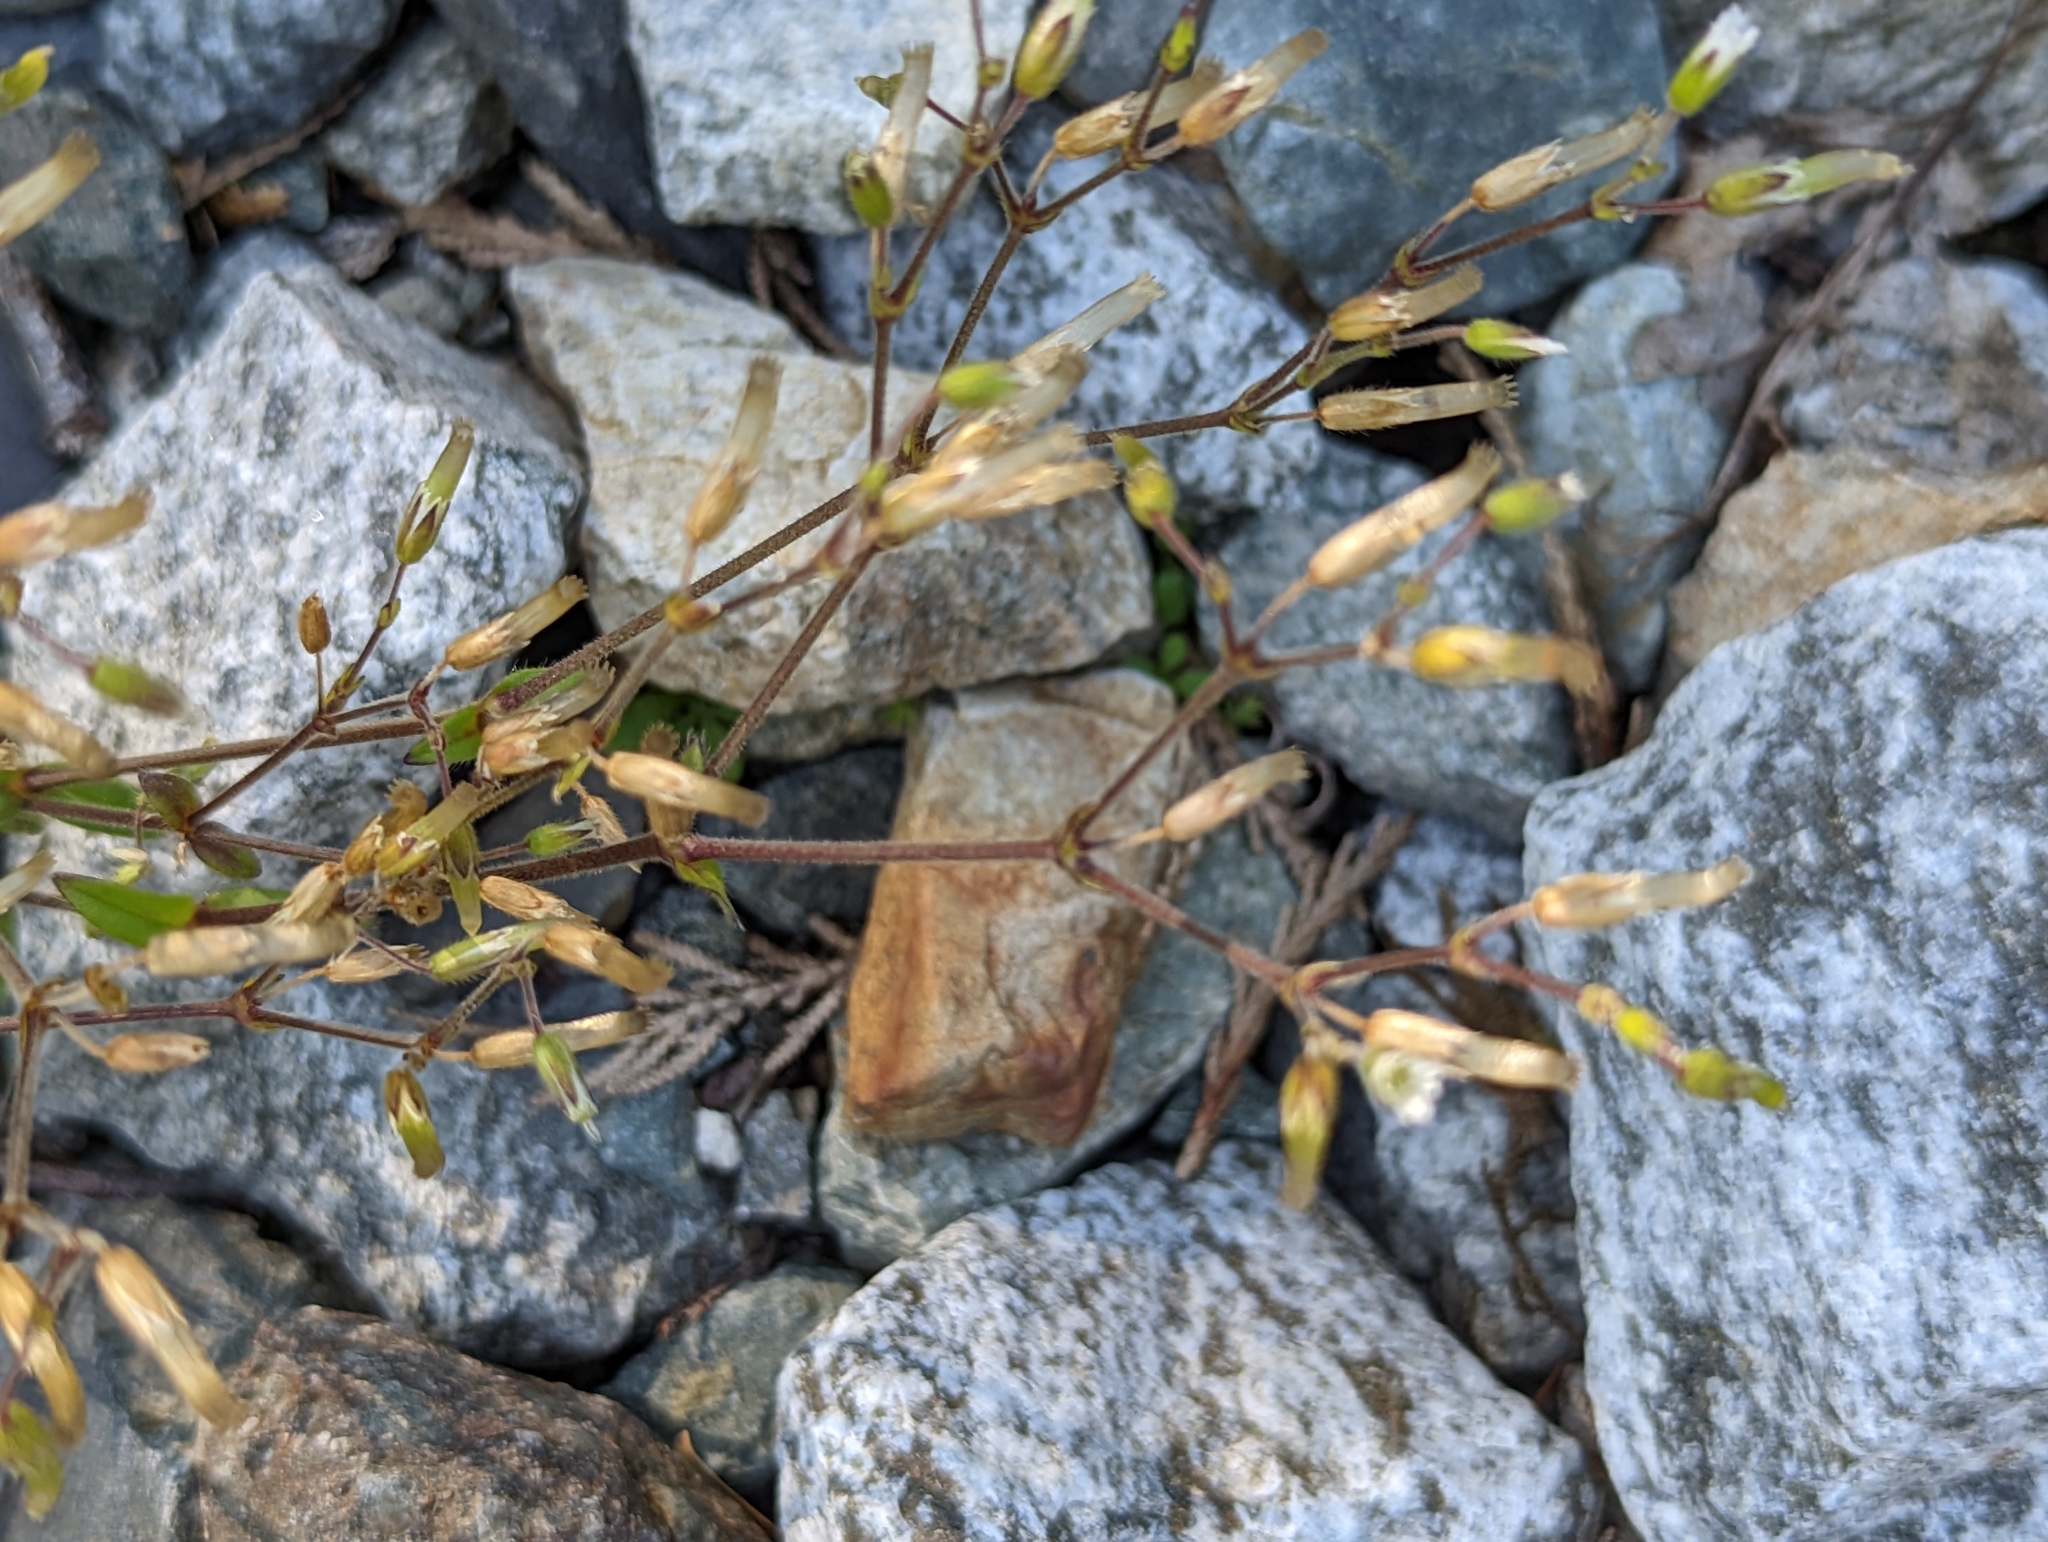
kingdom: Plantae
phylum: Tracheophyta
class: Magnoliopsida
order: Caryophyllales
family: Caryophyllaceae
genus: Cerastium
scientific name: Cerastium fontanum
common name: Common mouse-ear
